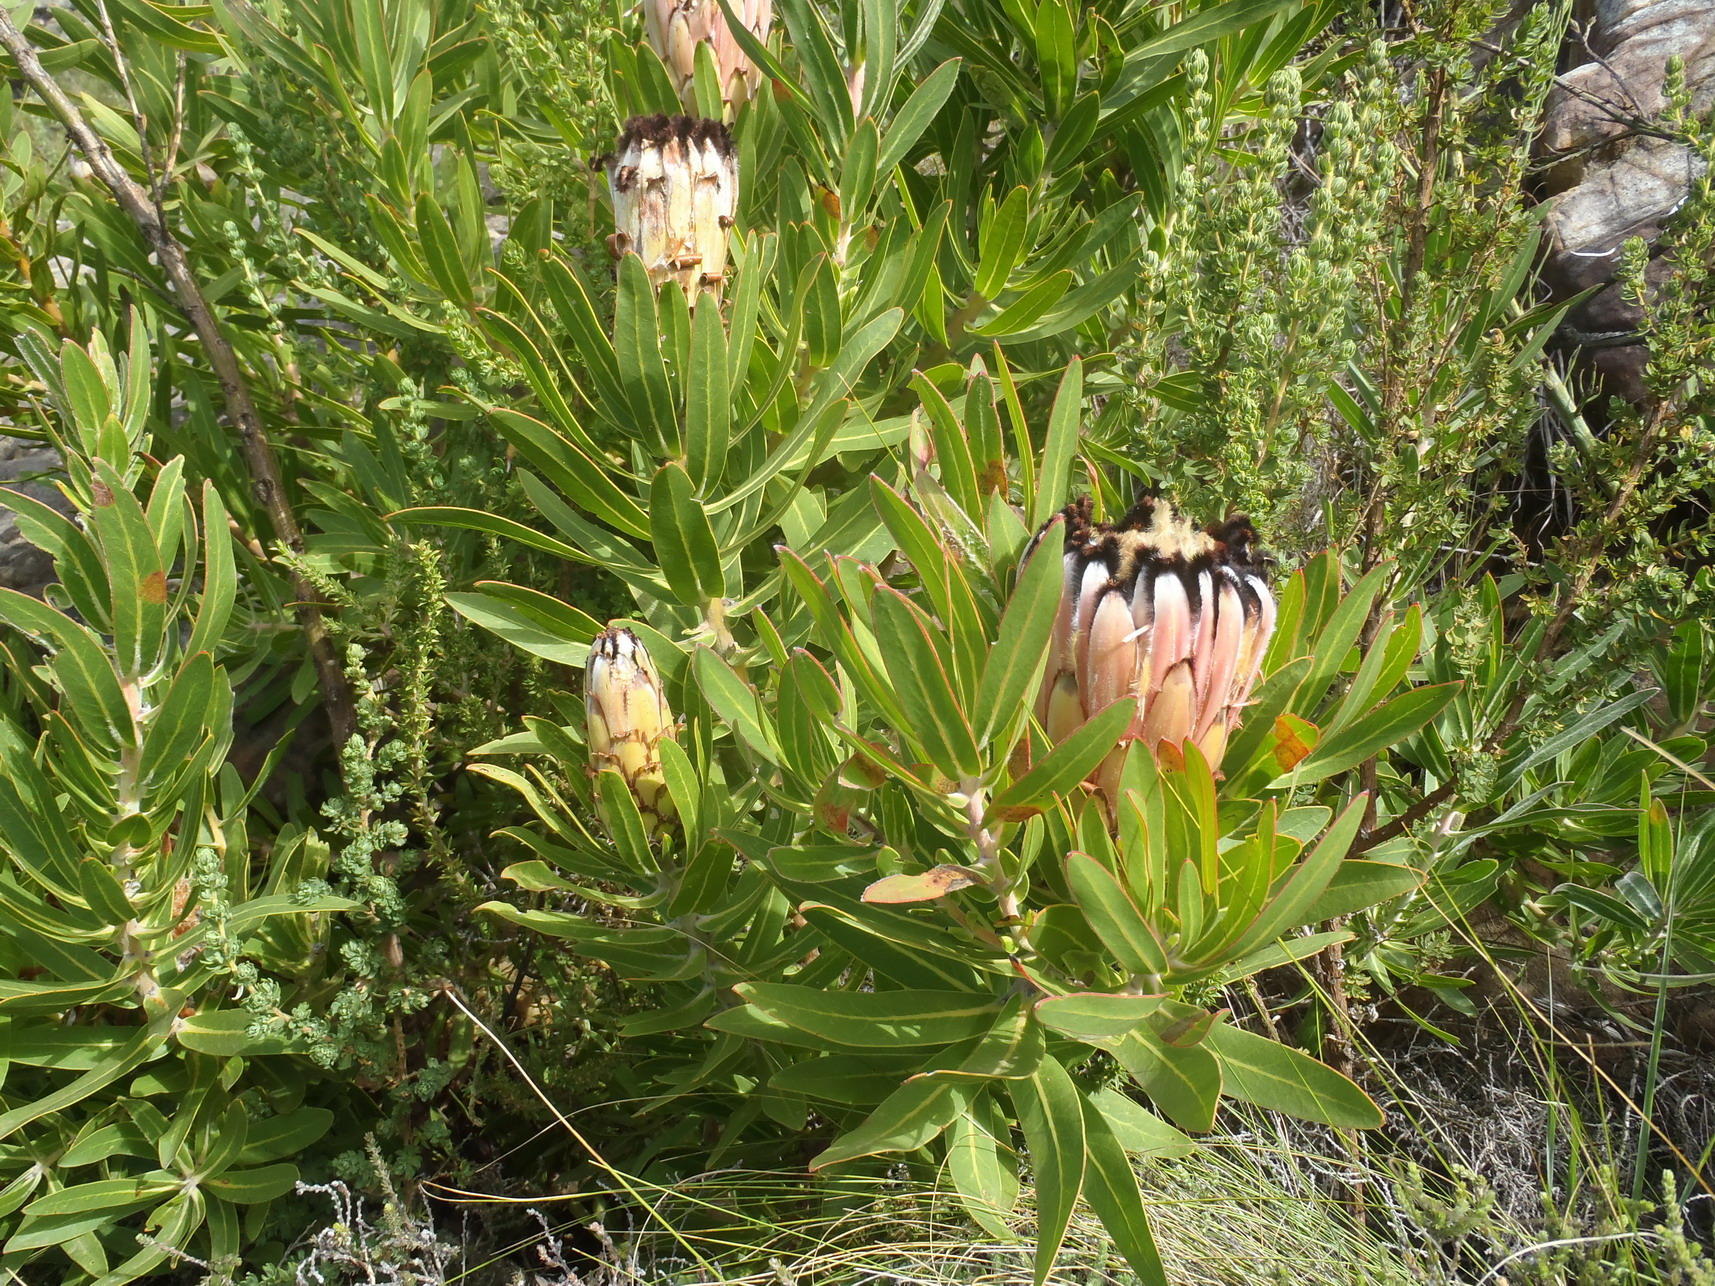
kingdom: Plantae
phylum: Tracheophyta
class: Magnoliopsida
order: Proteales
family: Proteaceae
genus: Protea
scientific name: Protea neriifolia
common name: Blue sugarbush
